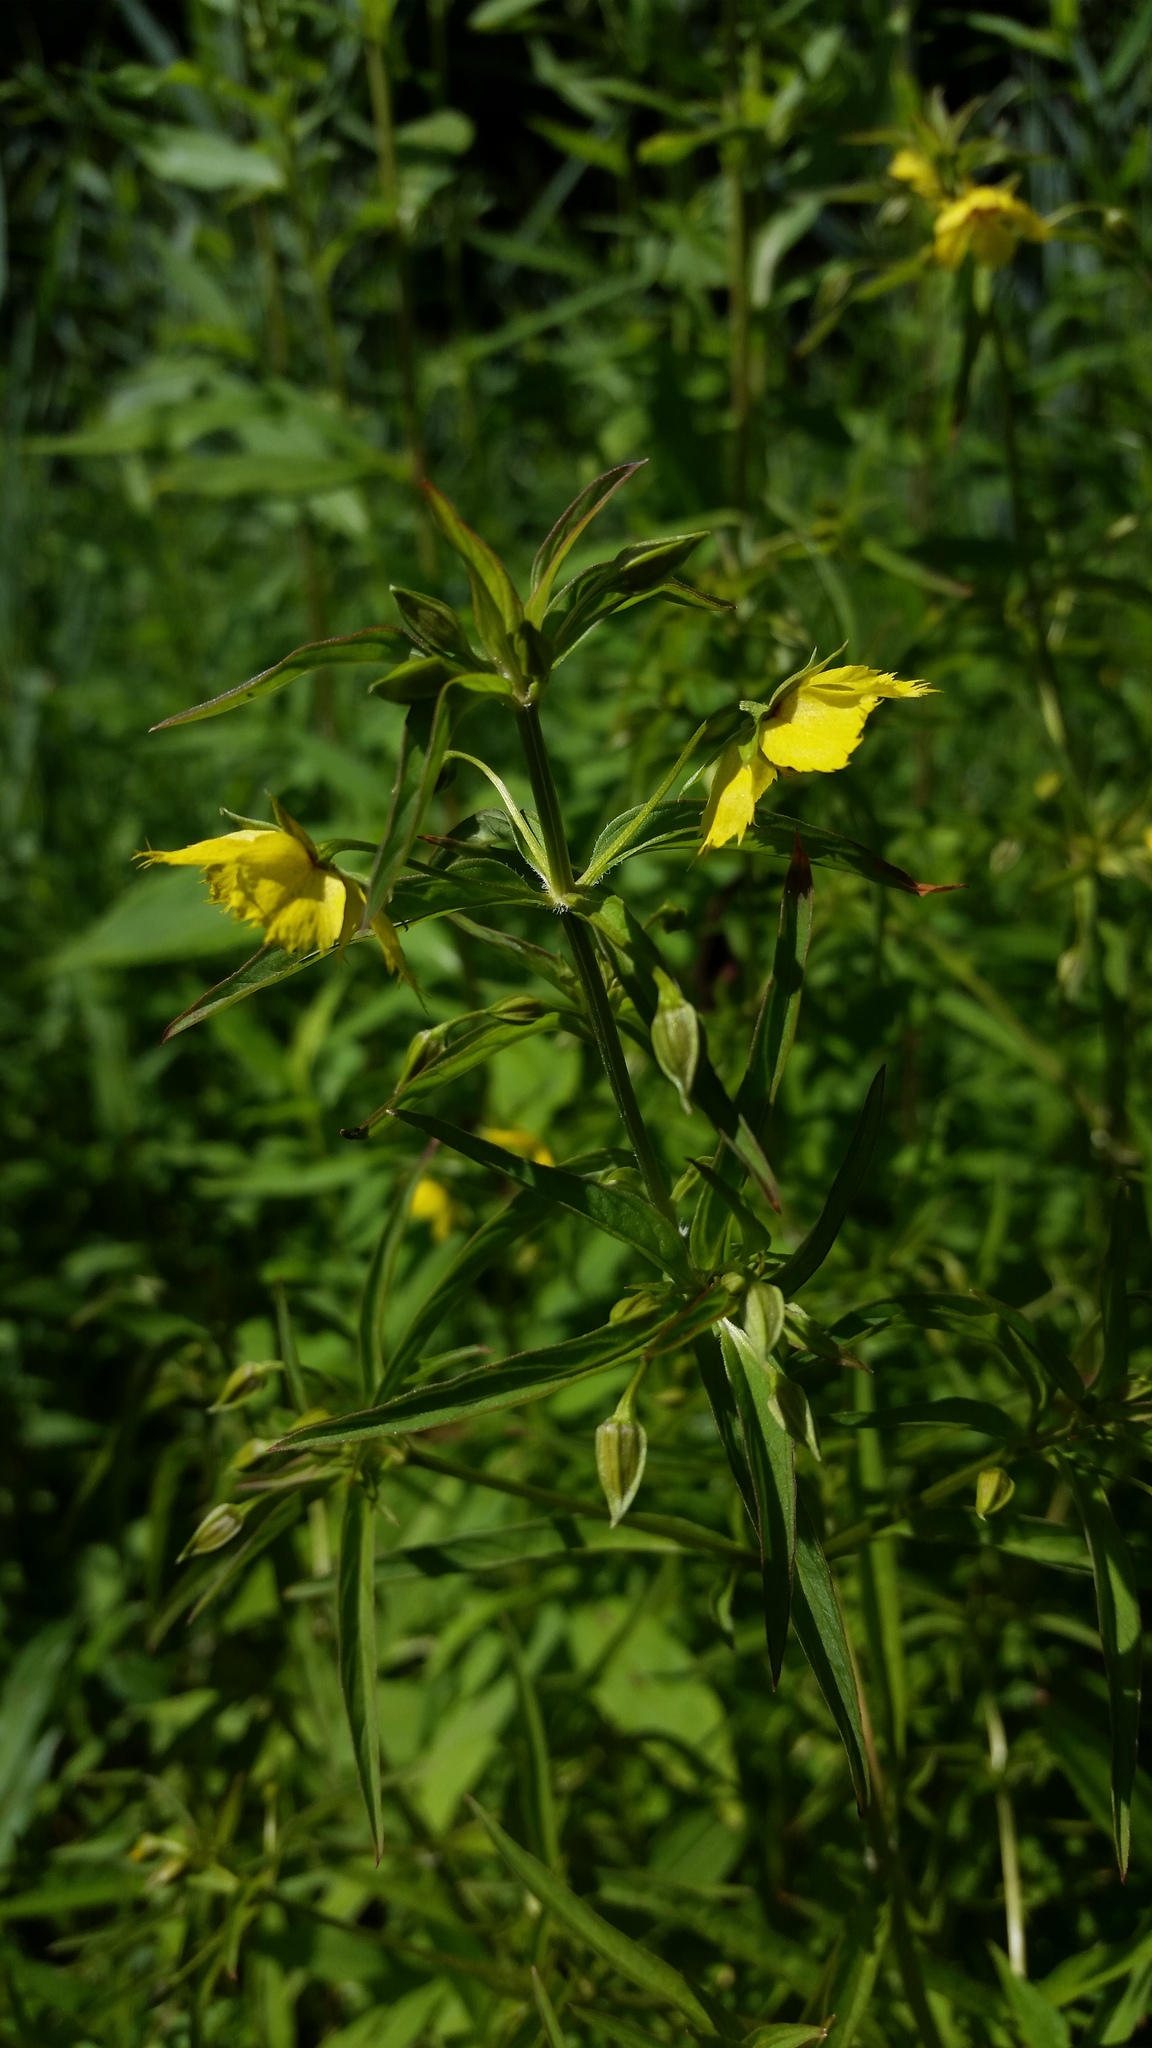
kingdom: Plantae
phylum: Tracheophyta
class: Magnoliopsida
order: Ericales
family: Primulaceae
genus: Lysimachia
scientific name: Lysimachia hybrida
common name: Lowland loosestrife
